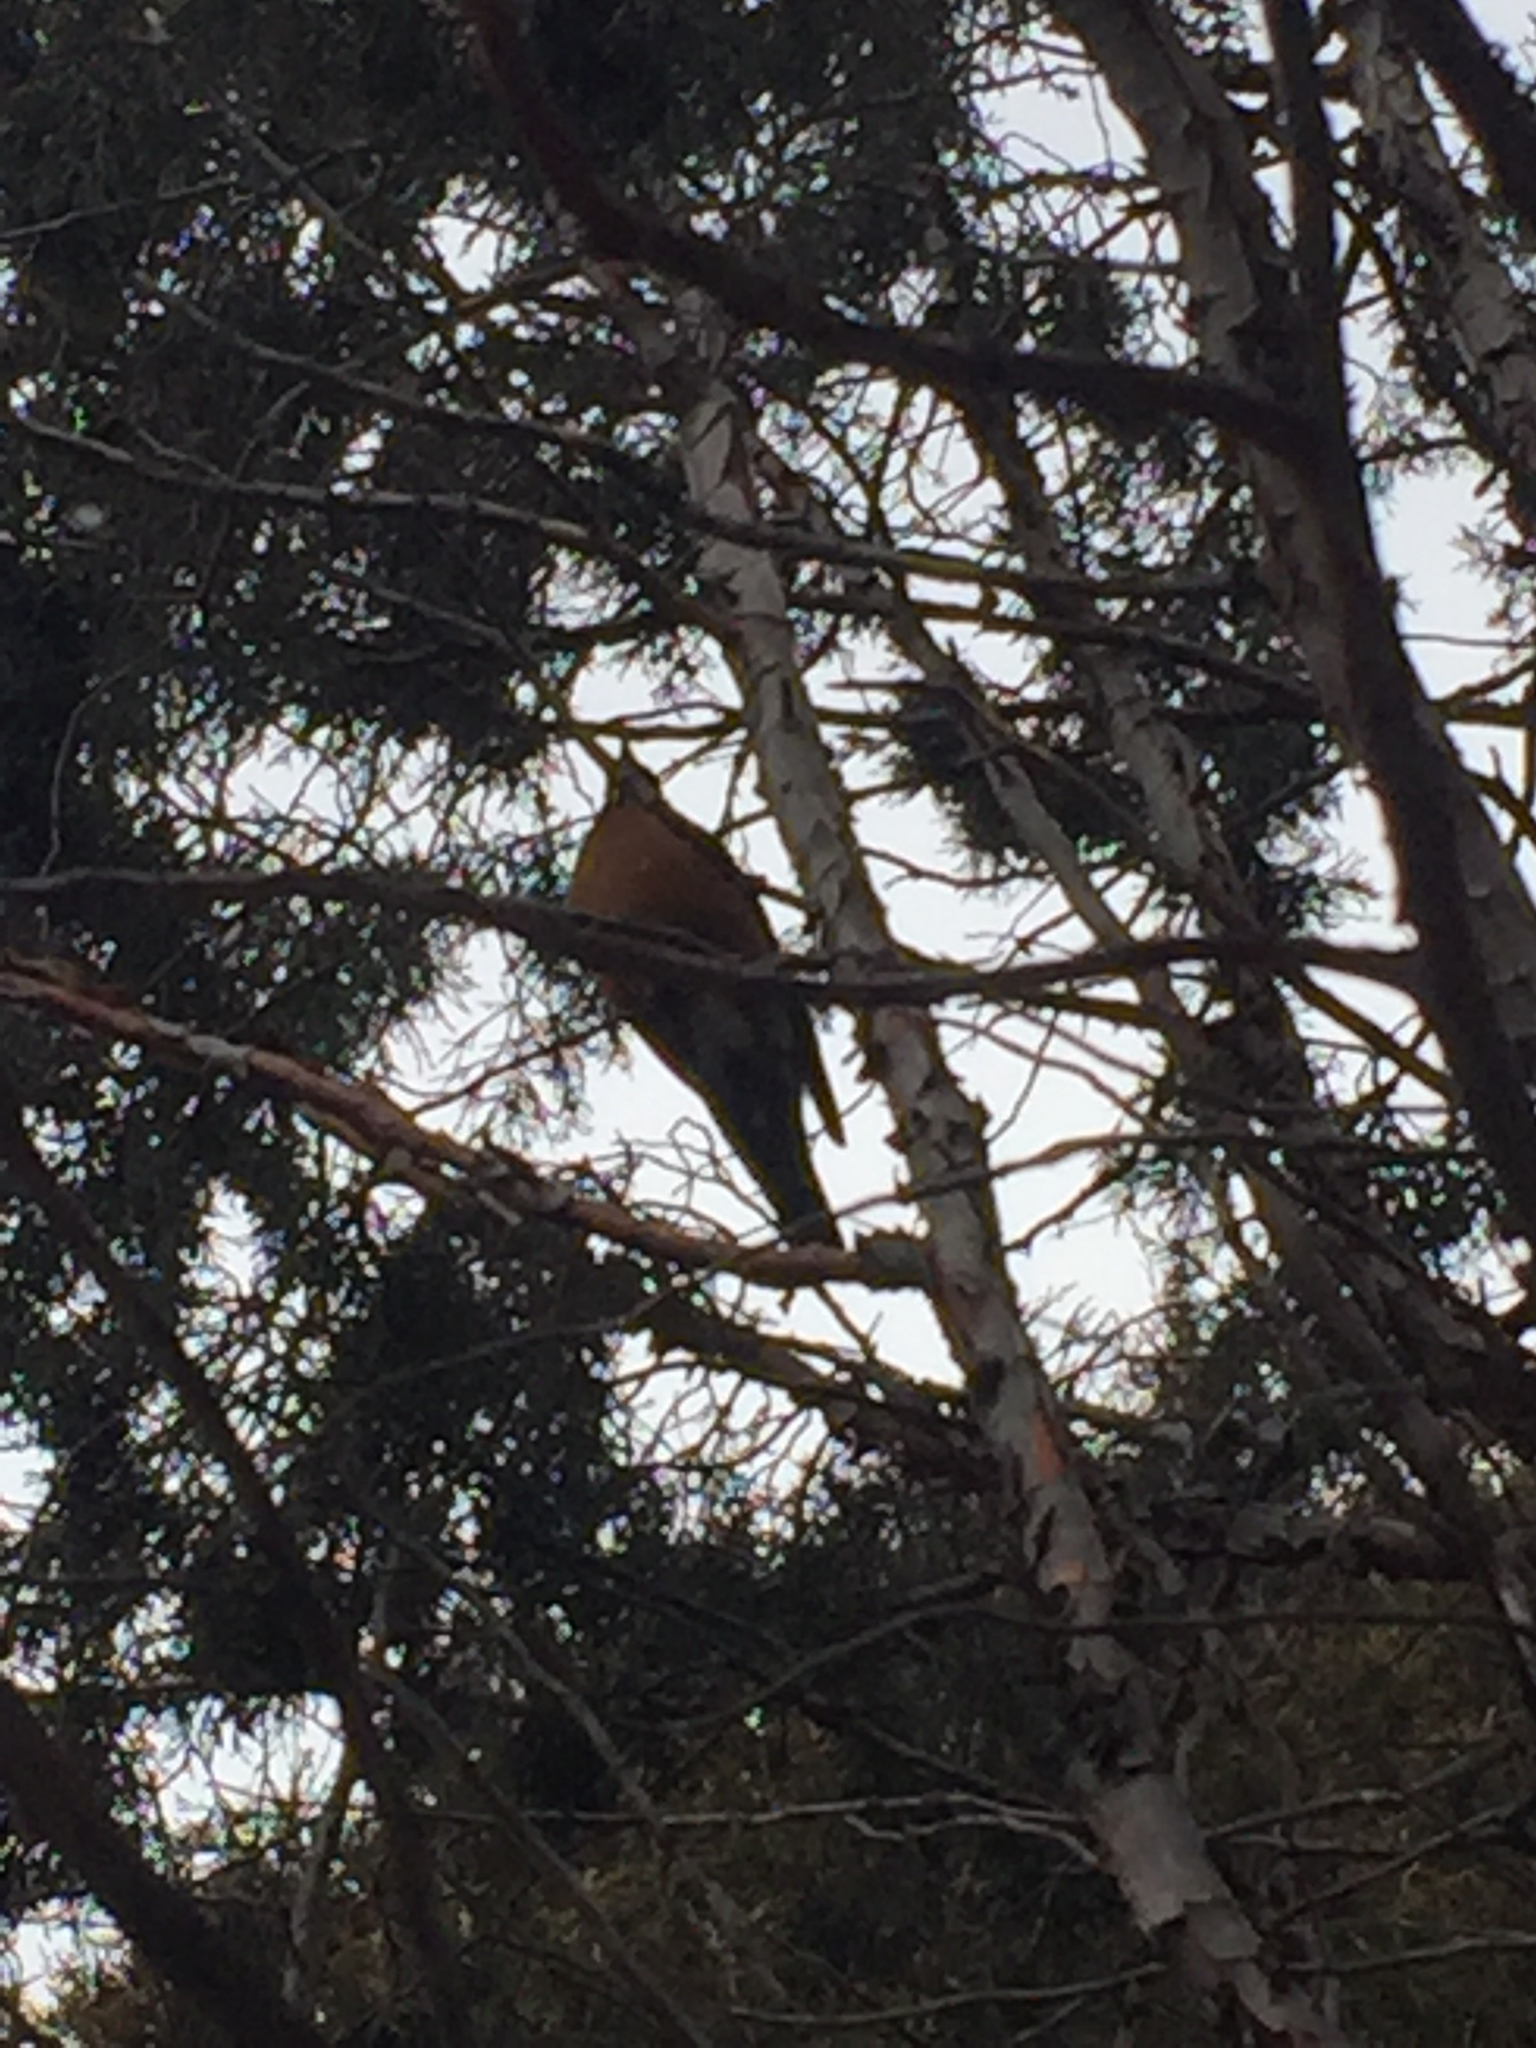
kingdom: Animalia
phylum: Chordata
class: Aves
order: Passeriformes
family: Turdidae
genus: Turdus
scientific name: Turdus migratorius
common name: American robin
